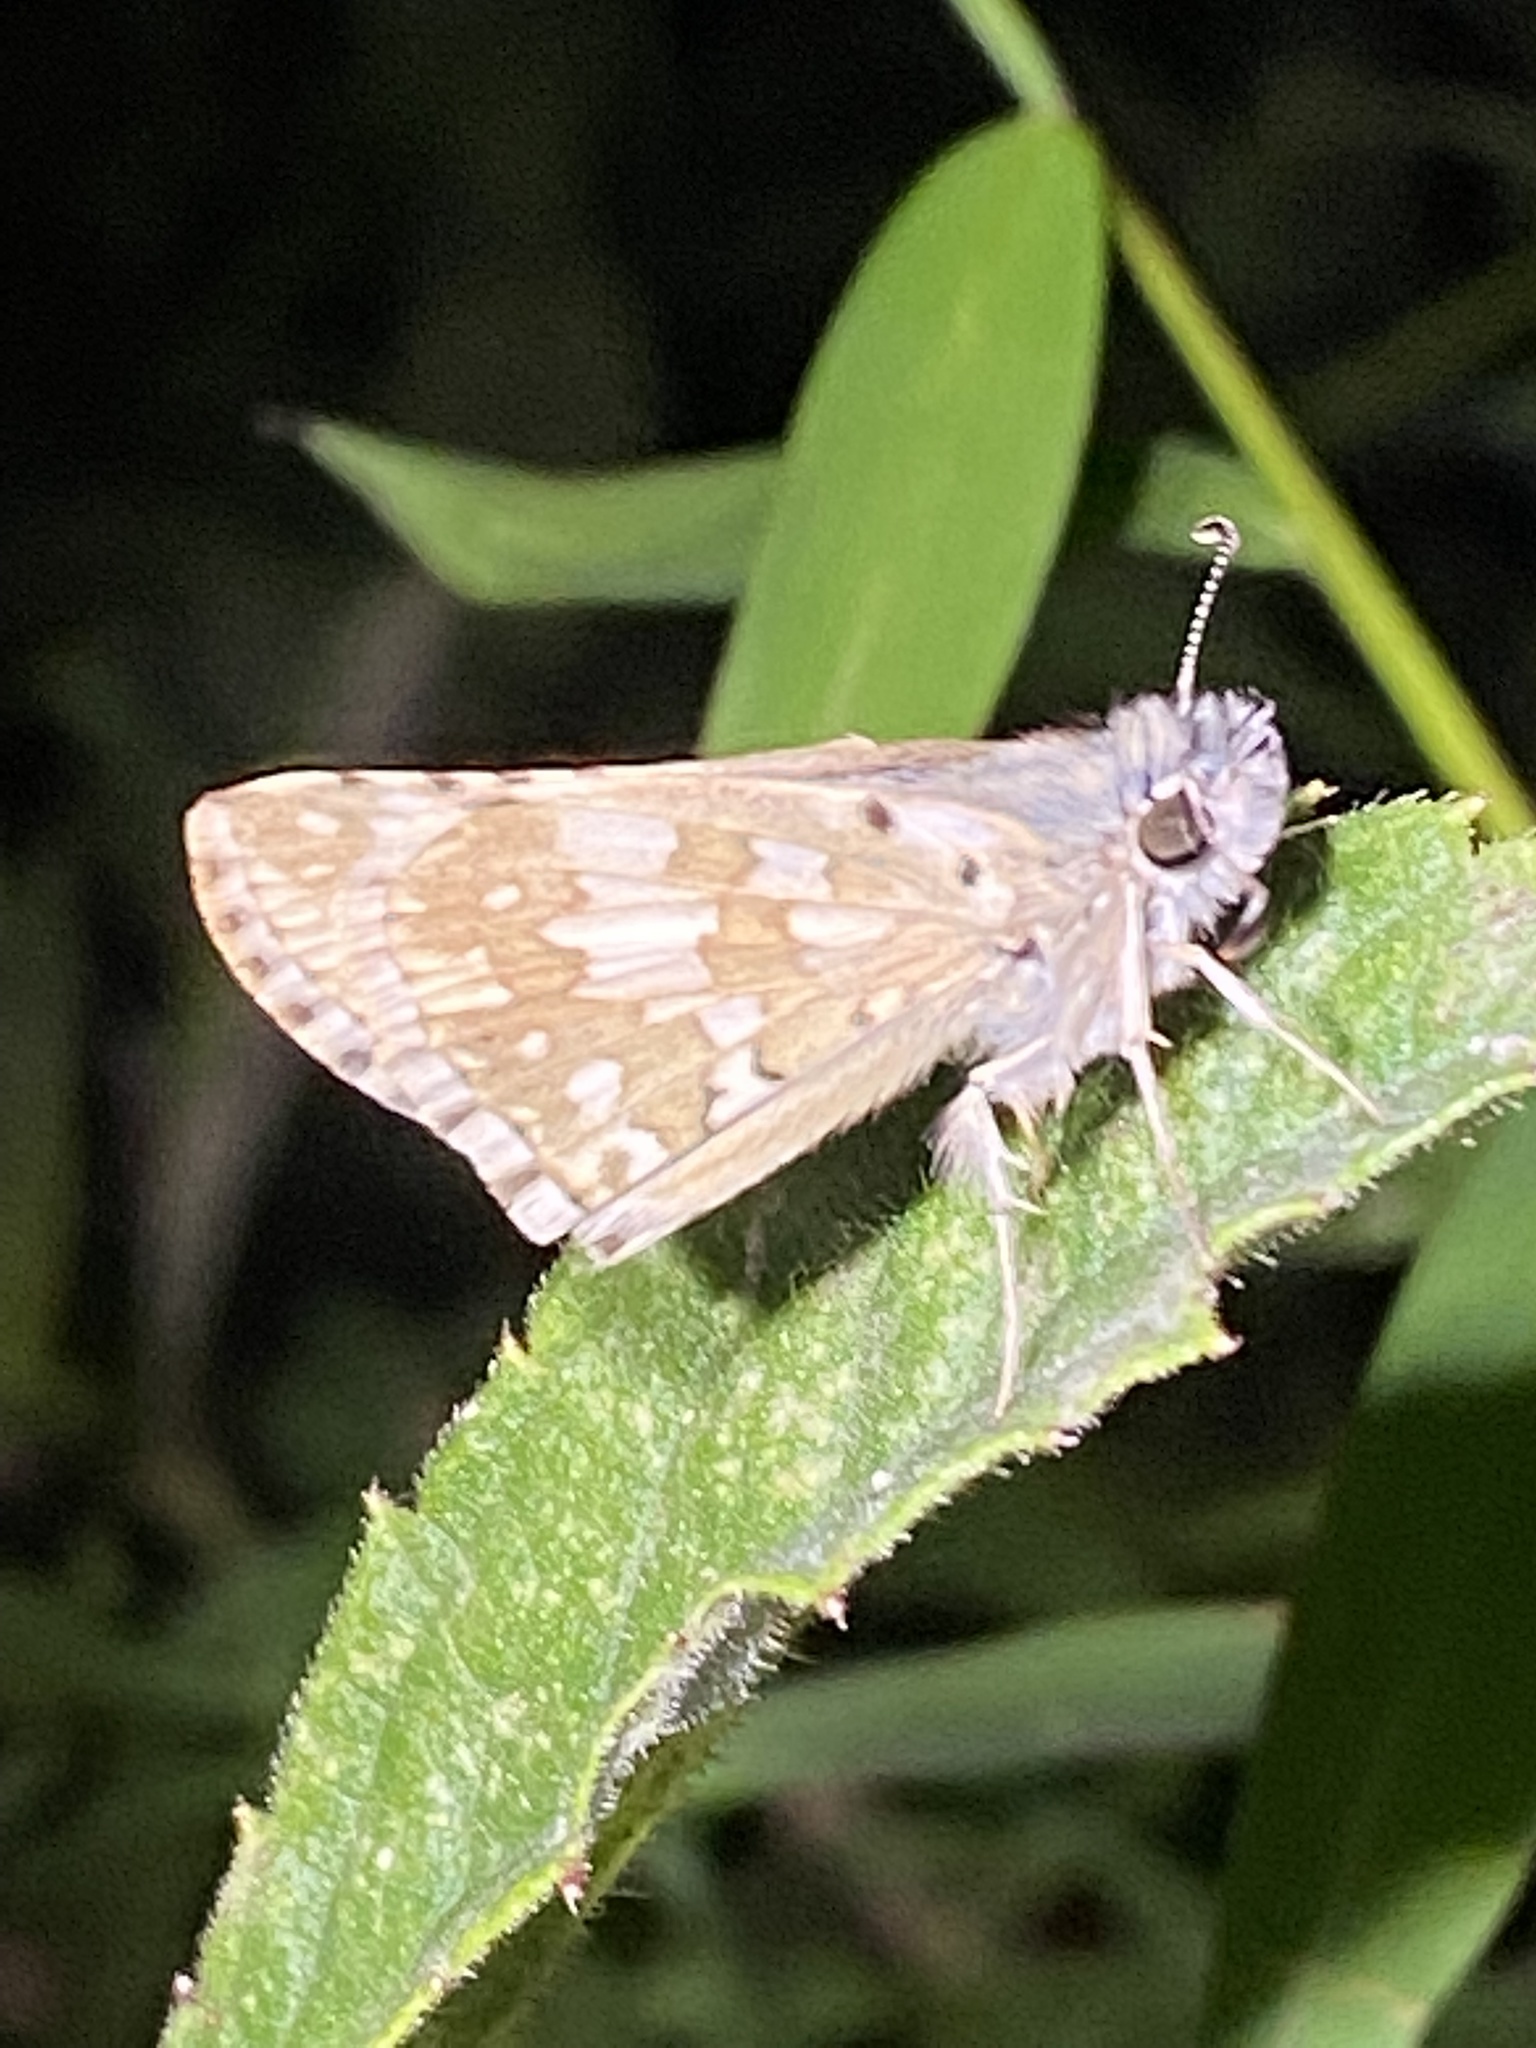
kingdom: Animalia
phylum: Arthropoda
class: Insecta
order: Lepidoptera
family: Hesperiidae
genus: Burnsius
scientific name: Burnsius communis
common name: Common checkered-skipper
